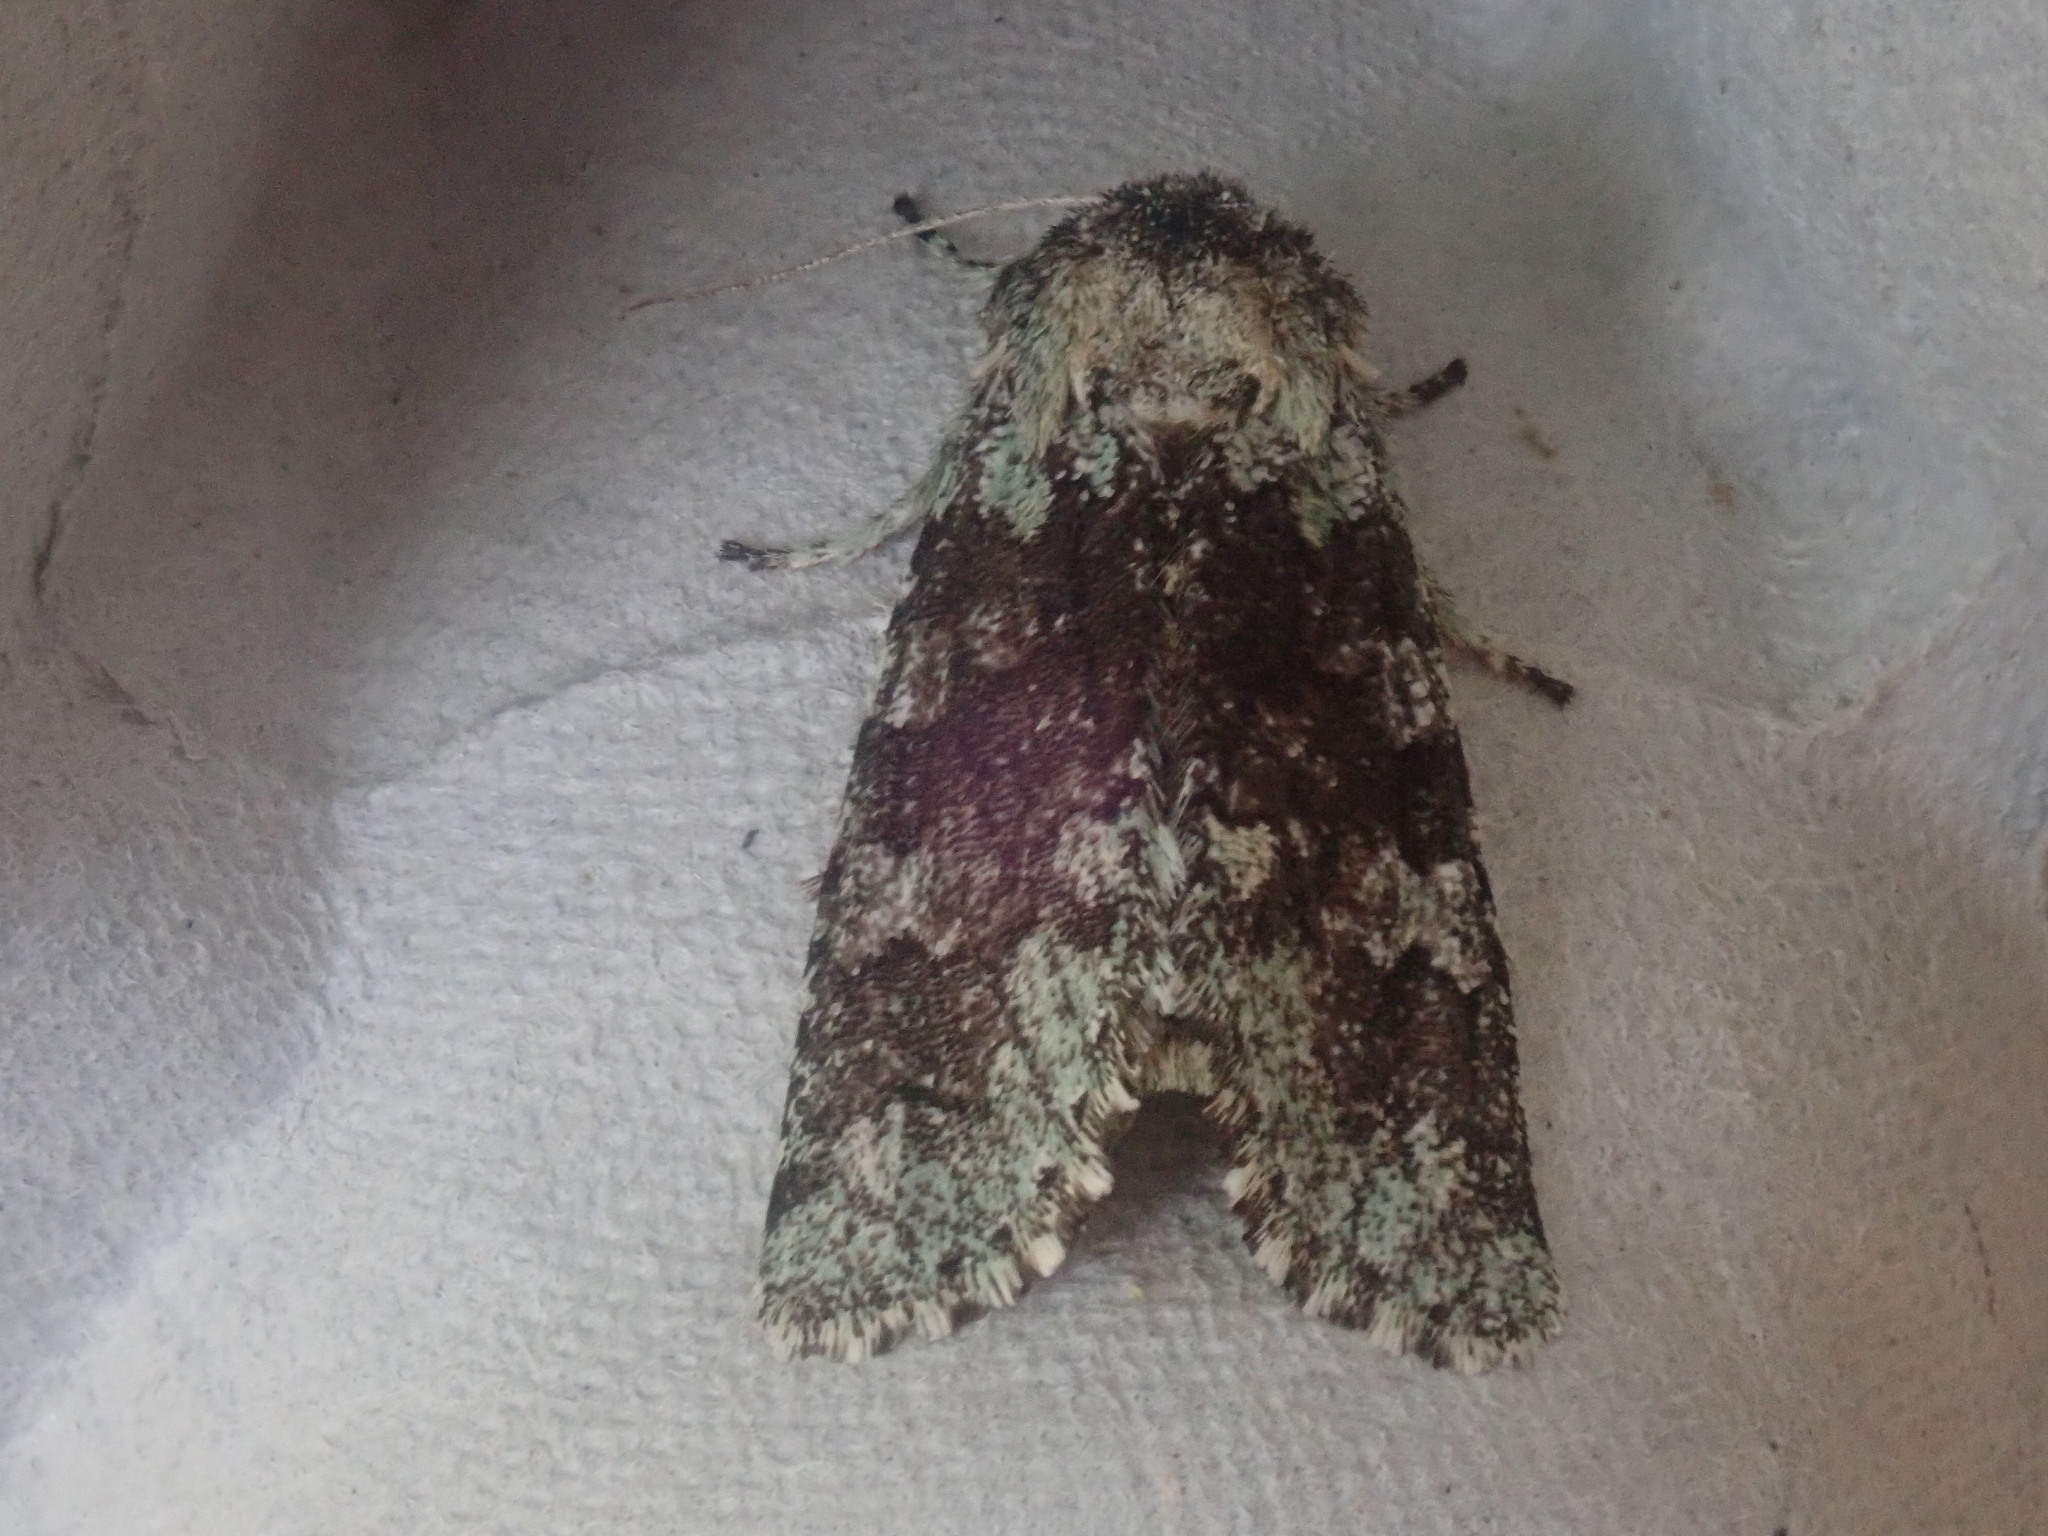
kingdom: Animalia
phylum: Arthropoda
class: Insecta
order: Lepidoptera
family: Noctuidae
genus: Feralia
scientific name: Feralia major
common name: Major sallow
